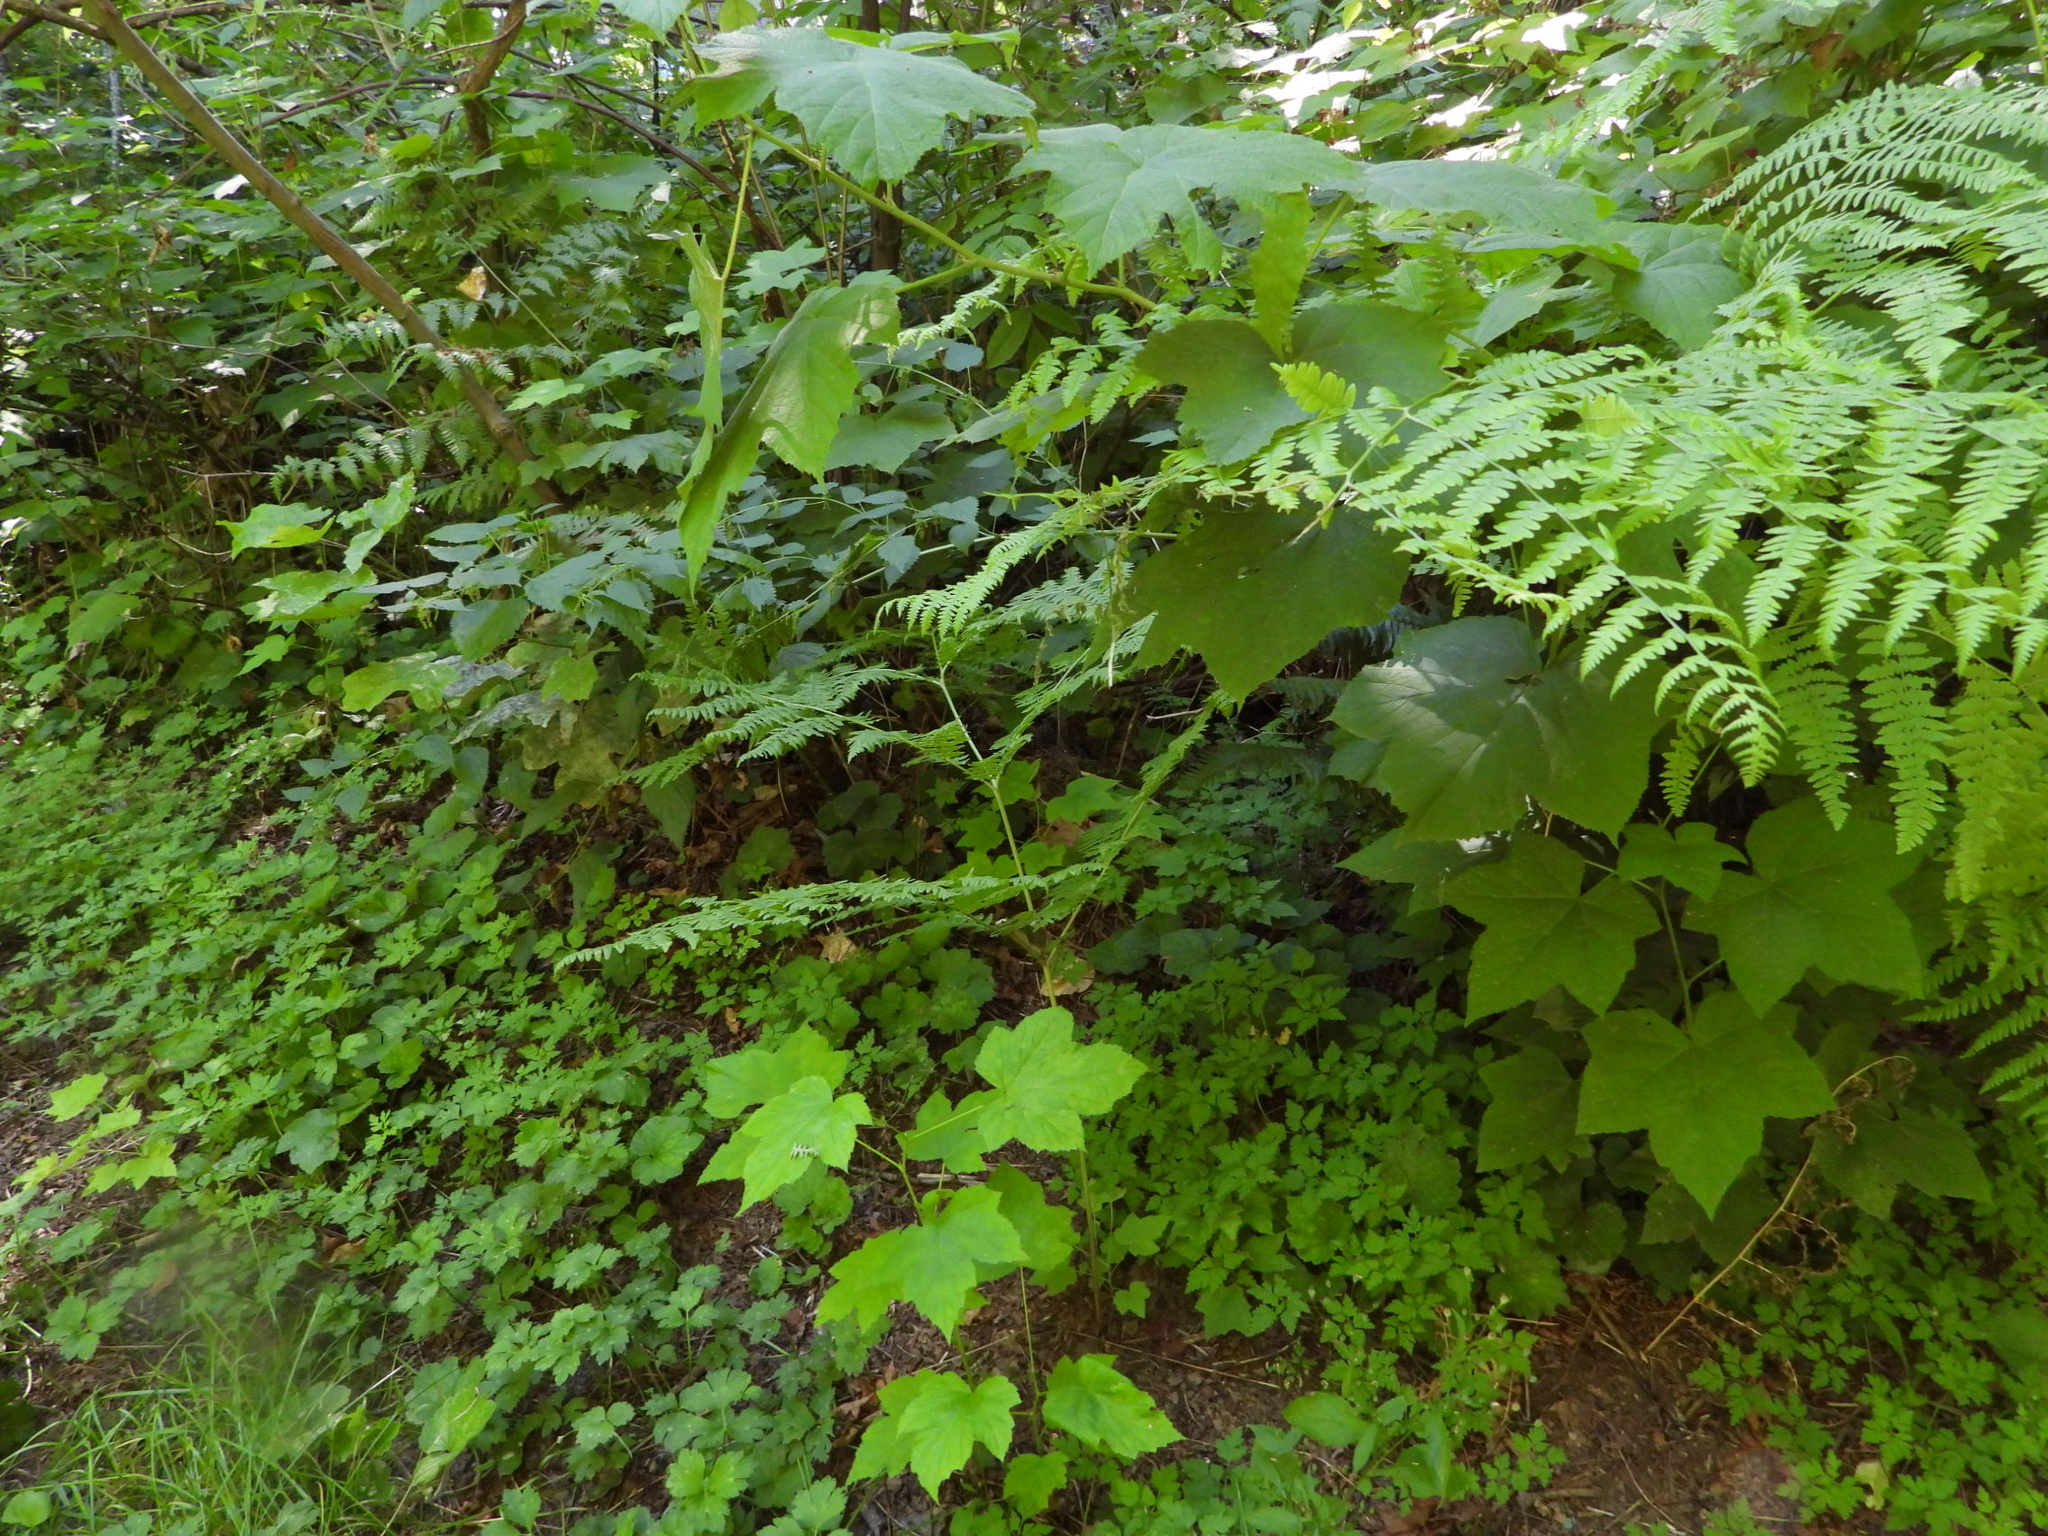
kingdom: Plantae
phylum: Tracheophyta
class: Polypodiopsida
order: Polypodiales
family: Dennstaedtiaceae
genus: Pteridium
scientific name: Pteridium aquilinum
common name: Bracken
